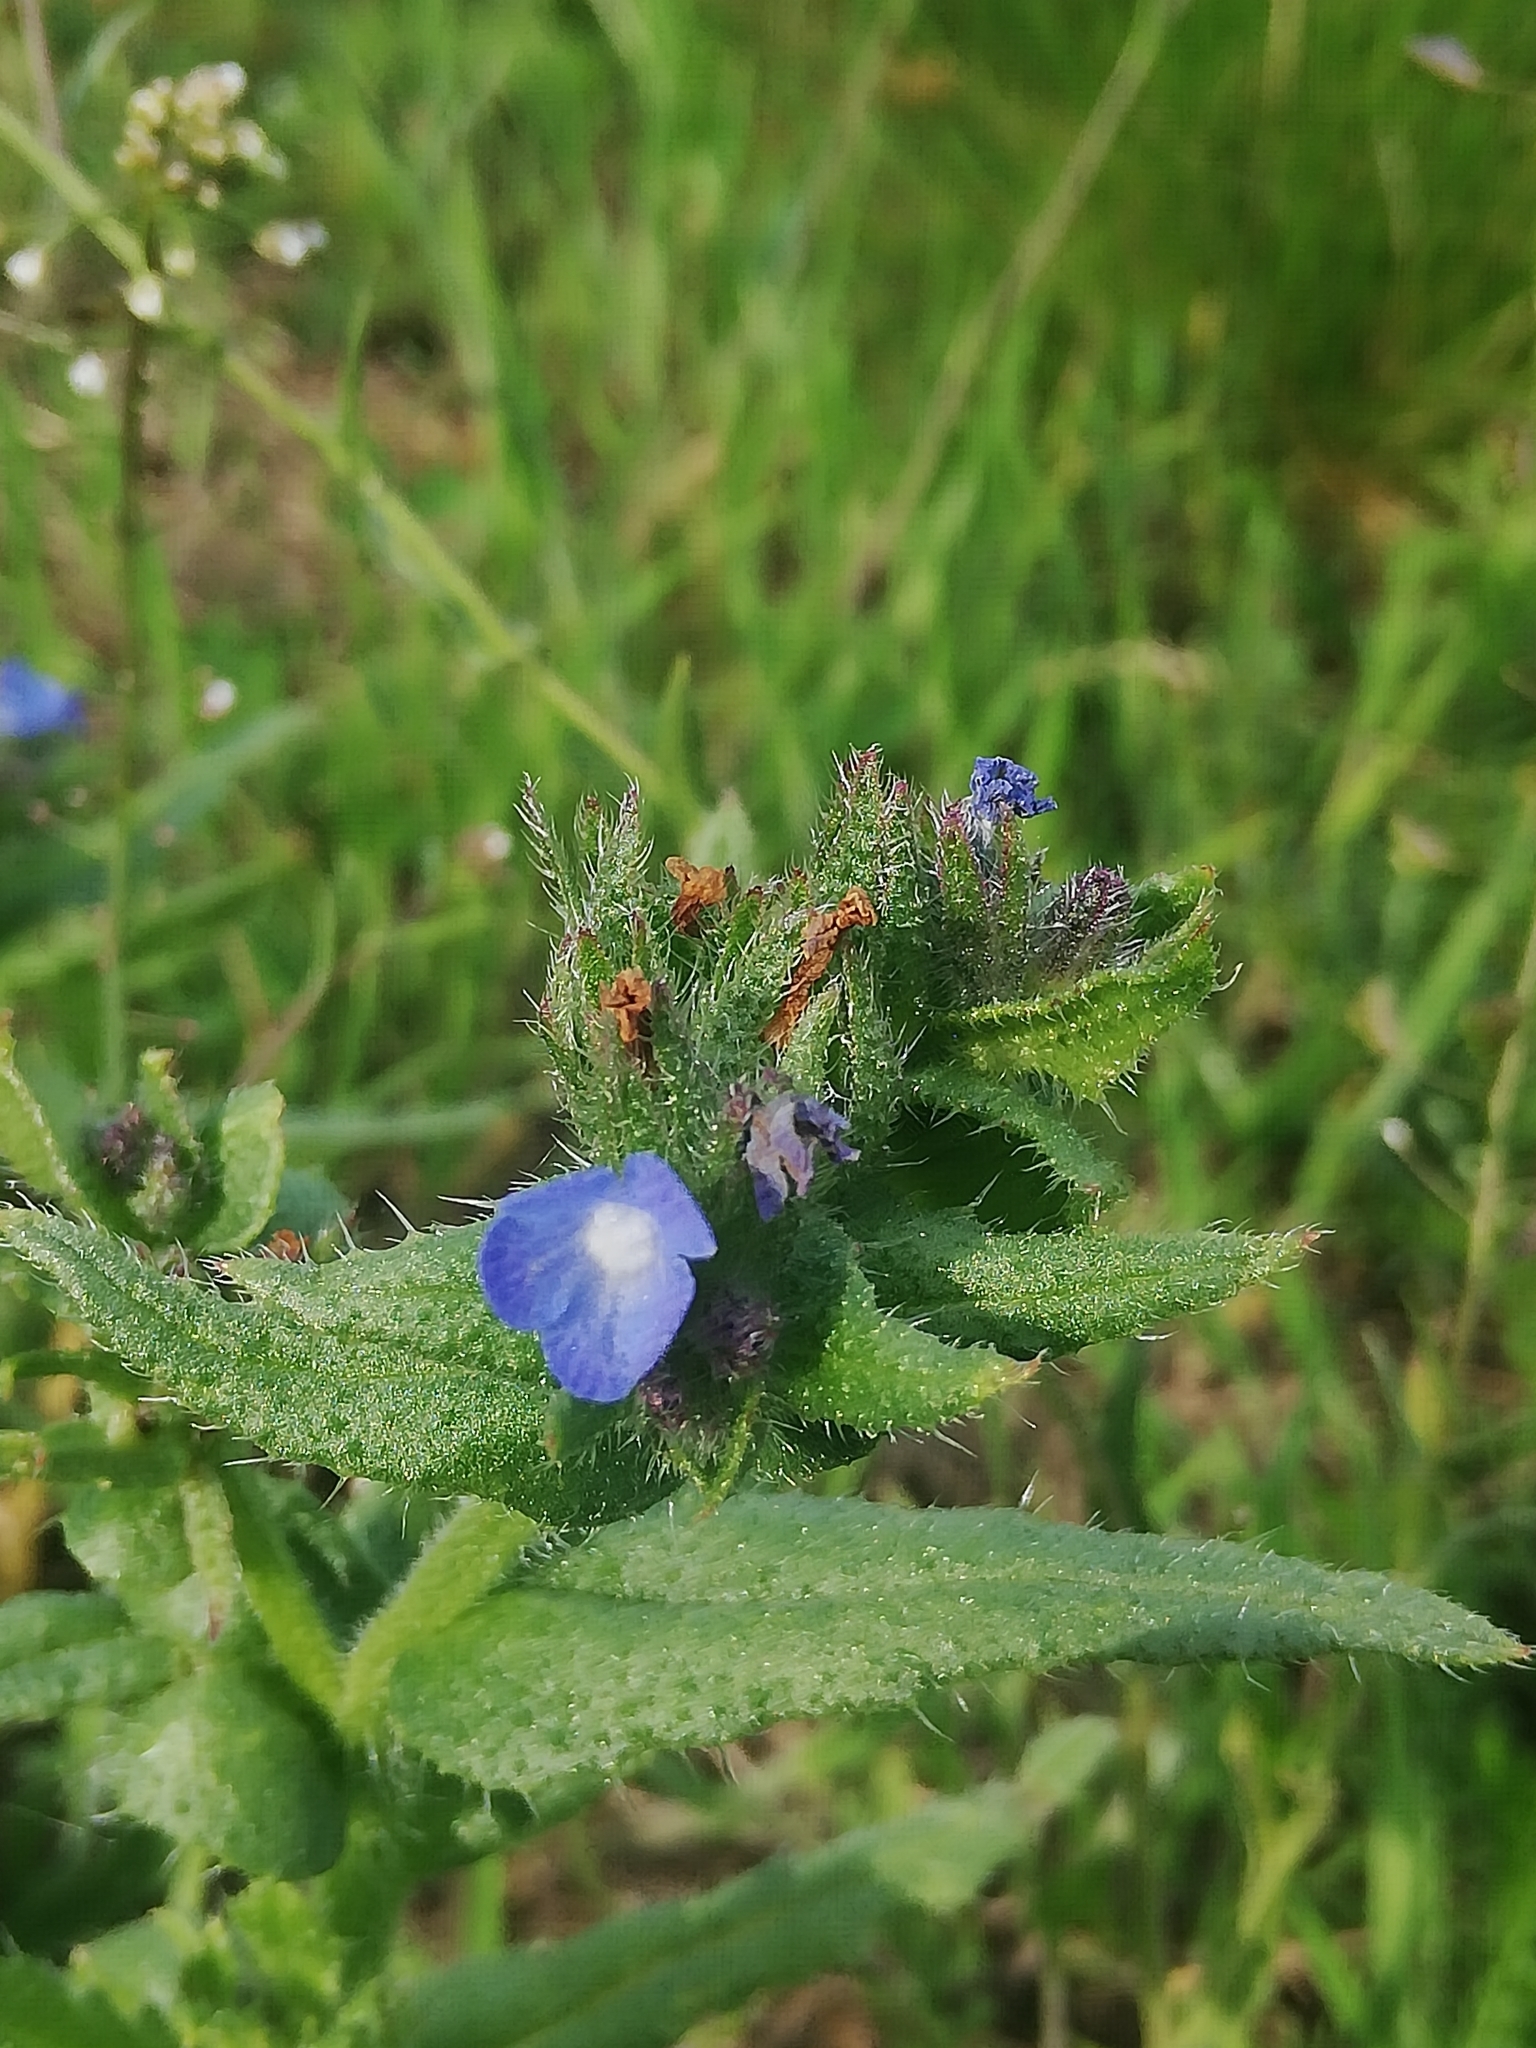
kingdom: Plantae
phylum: Tracheophyta
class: Magnoliopsida
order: Boraginales
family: Boraginaceae
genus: Lycopsis
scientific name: Lycopsis arvensis
